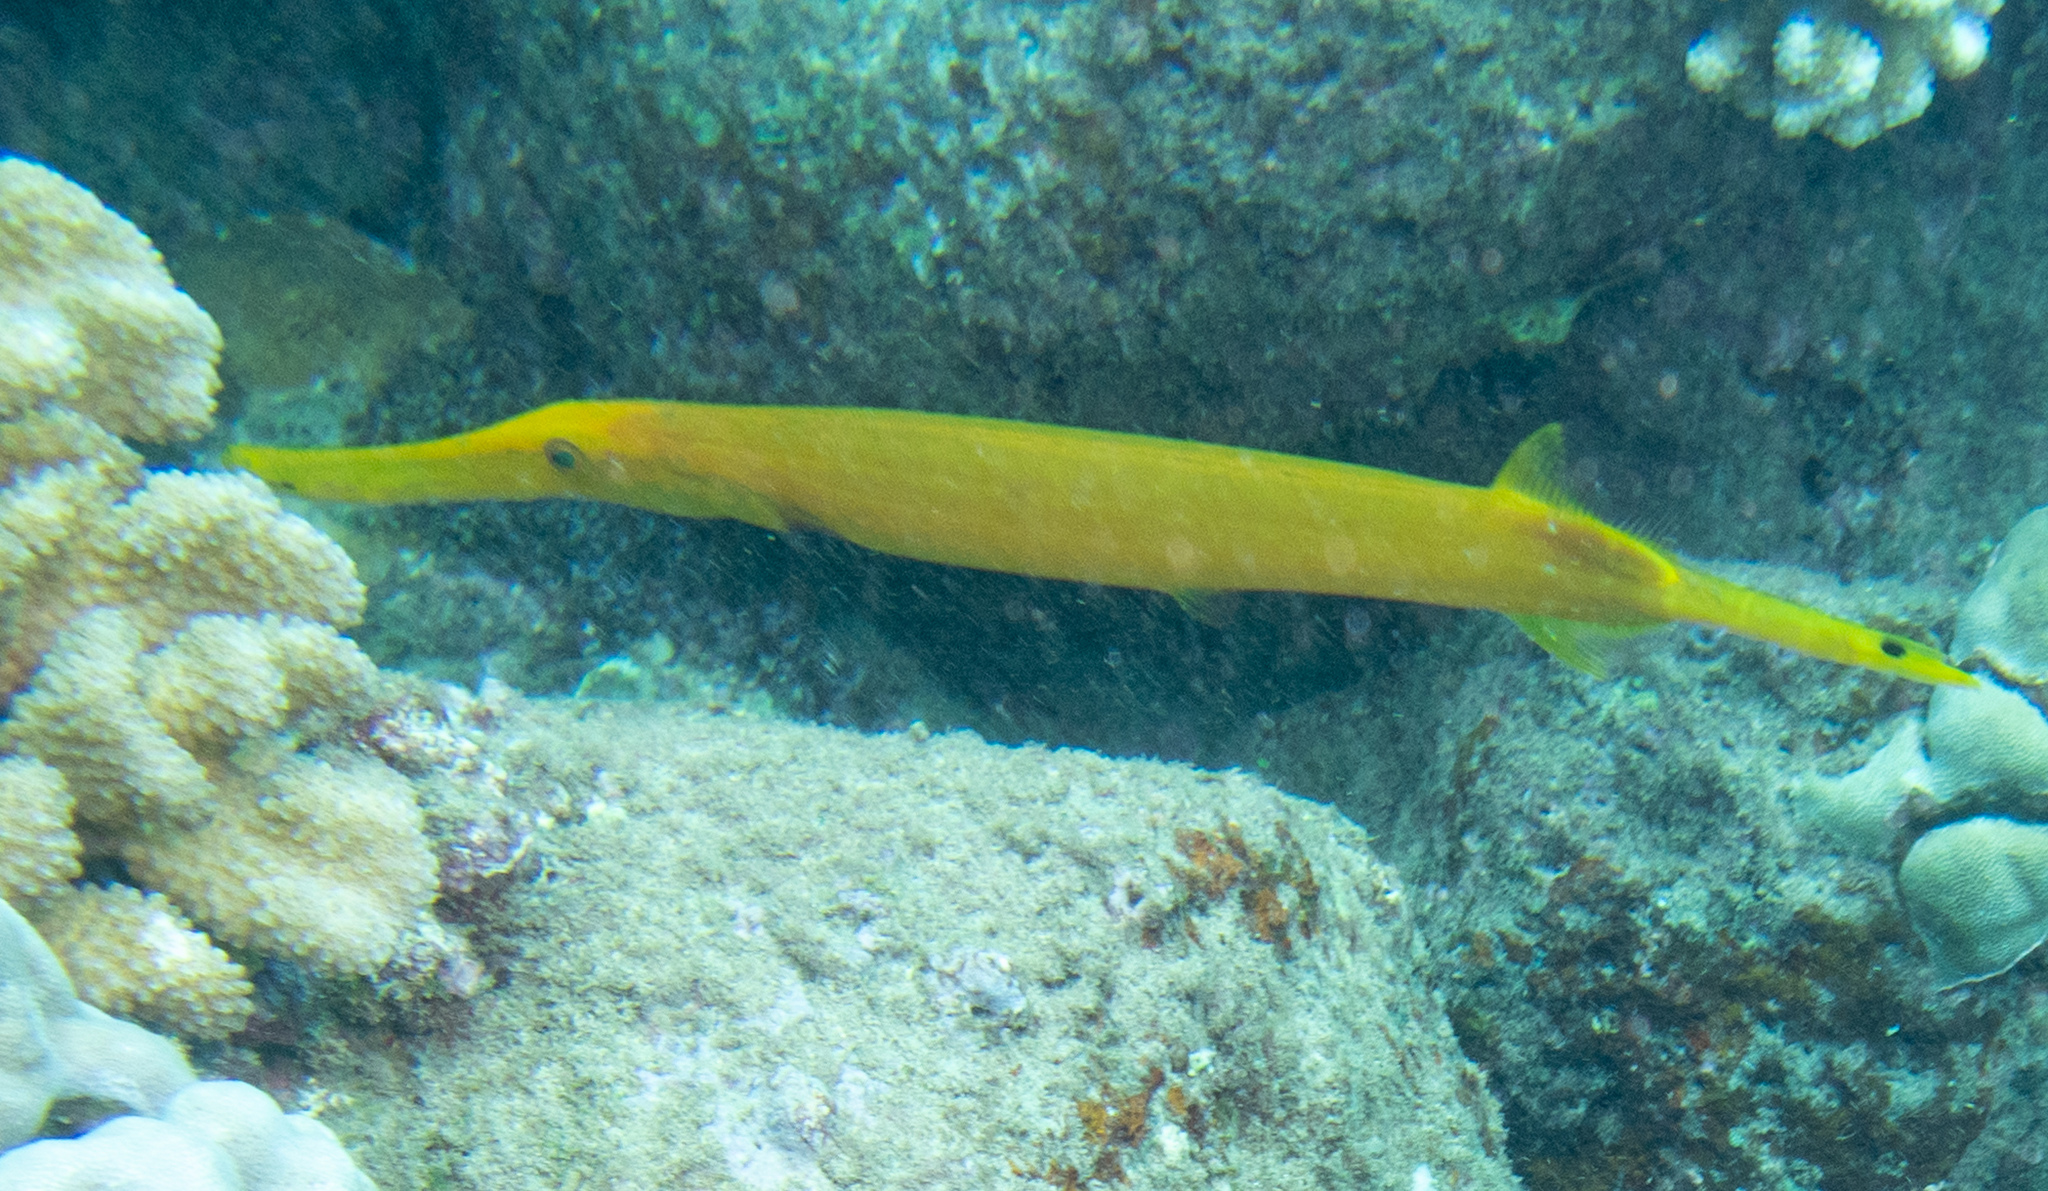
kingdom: Animalia
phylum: Chordata
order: Syngnathiformes
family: Aulostomidae
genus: Aulostomus
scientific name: Aulostomus chinensis
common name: Chinese trumpetfish
